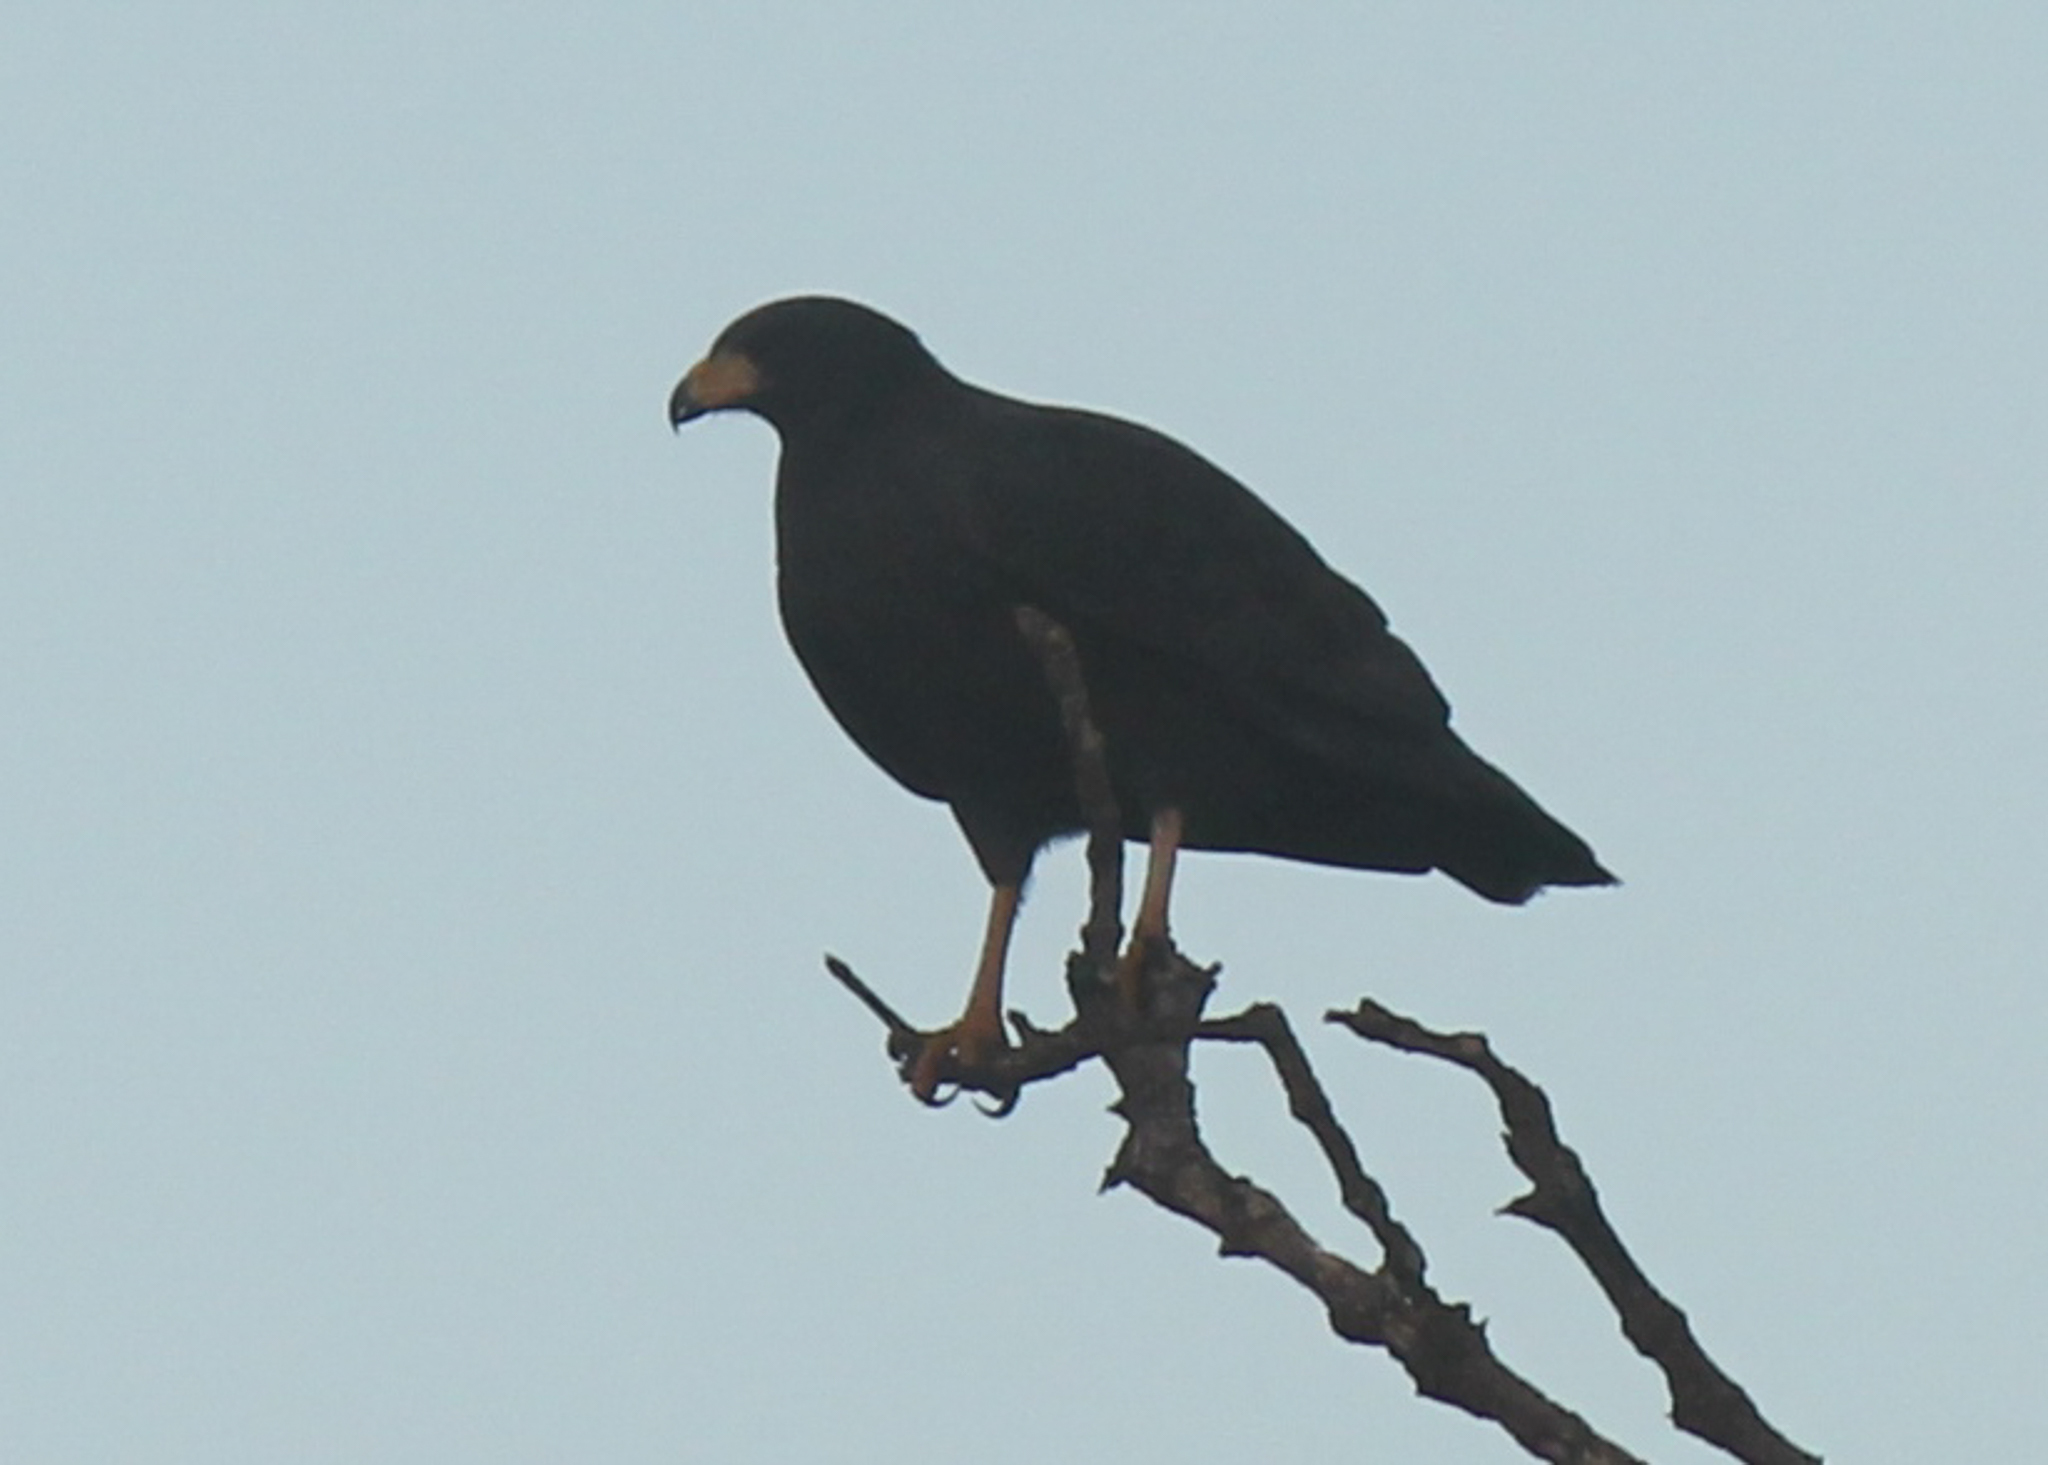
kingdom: Animalia
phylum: Chordata
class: Aves
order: Accipitriformes
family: Accipitridae
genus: Buteogallus
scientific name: Buteogallus anthracinus
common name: Common black hawk
